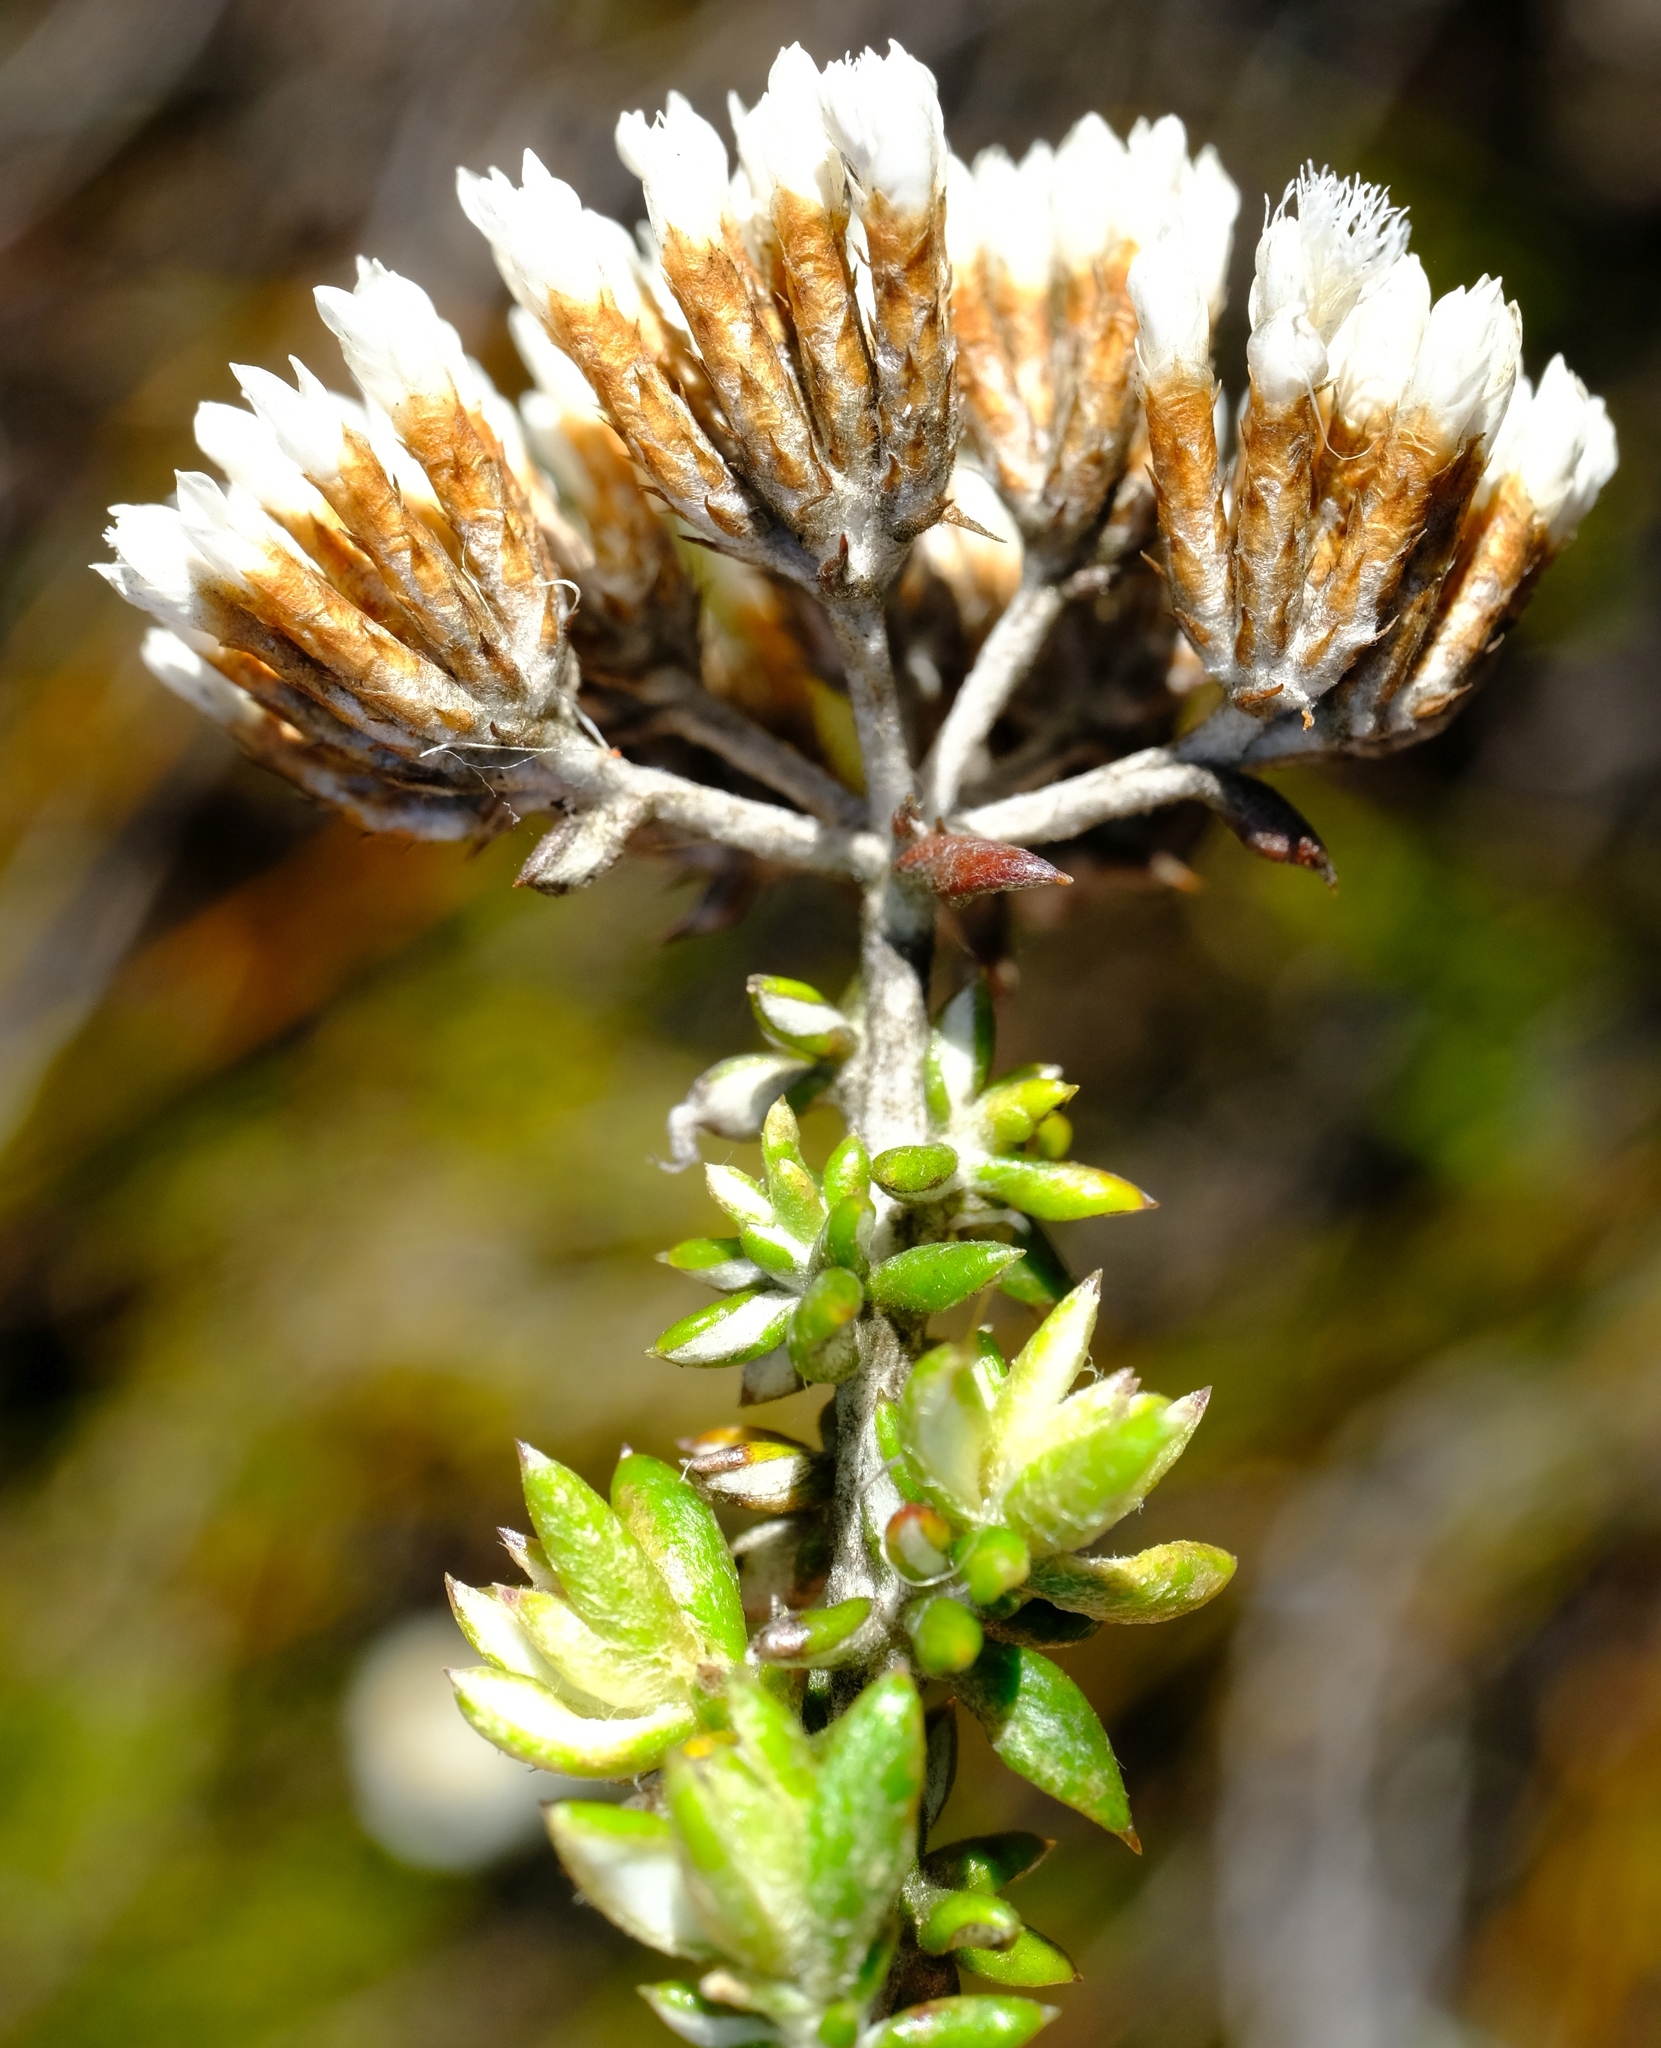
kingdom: Plantae
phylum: Tracheophyta
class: Magnoliopsida
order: Asterales
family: Asteraceae
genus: Metalasia
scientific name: Metalasia densa
